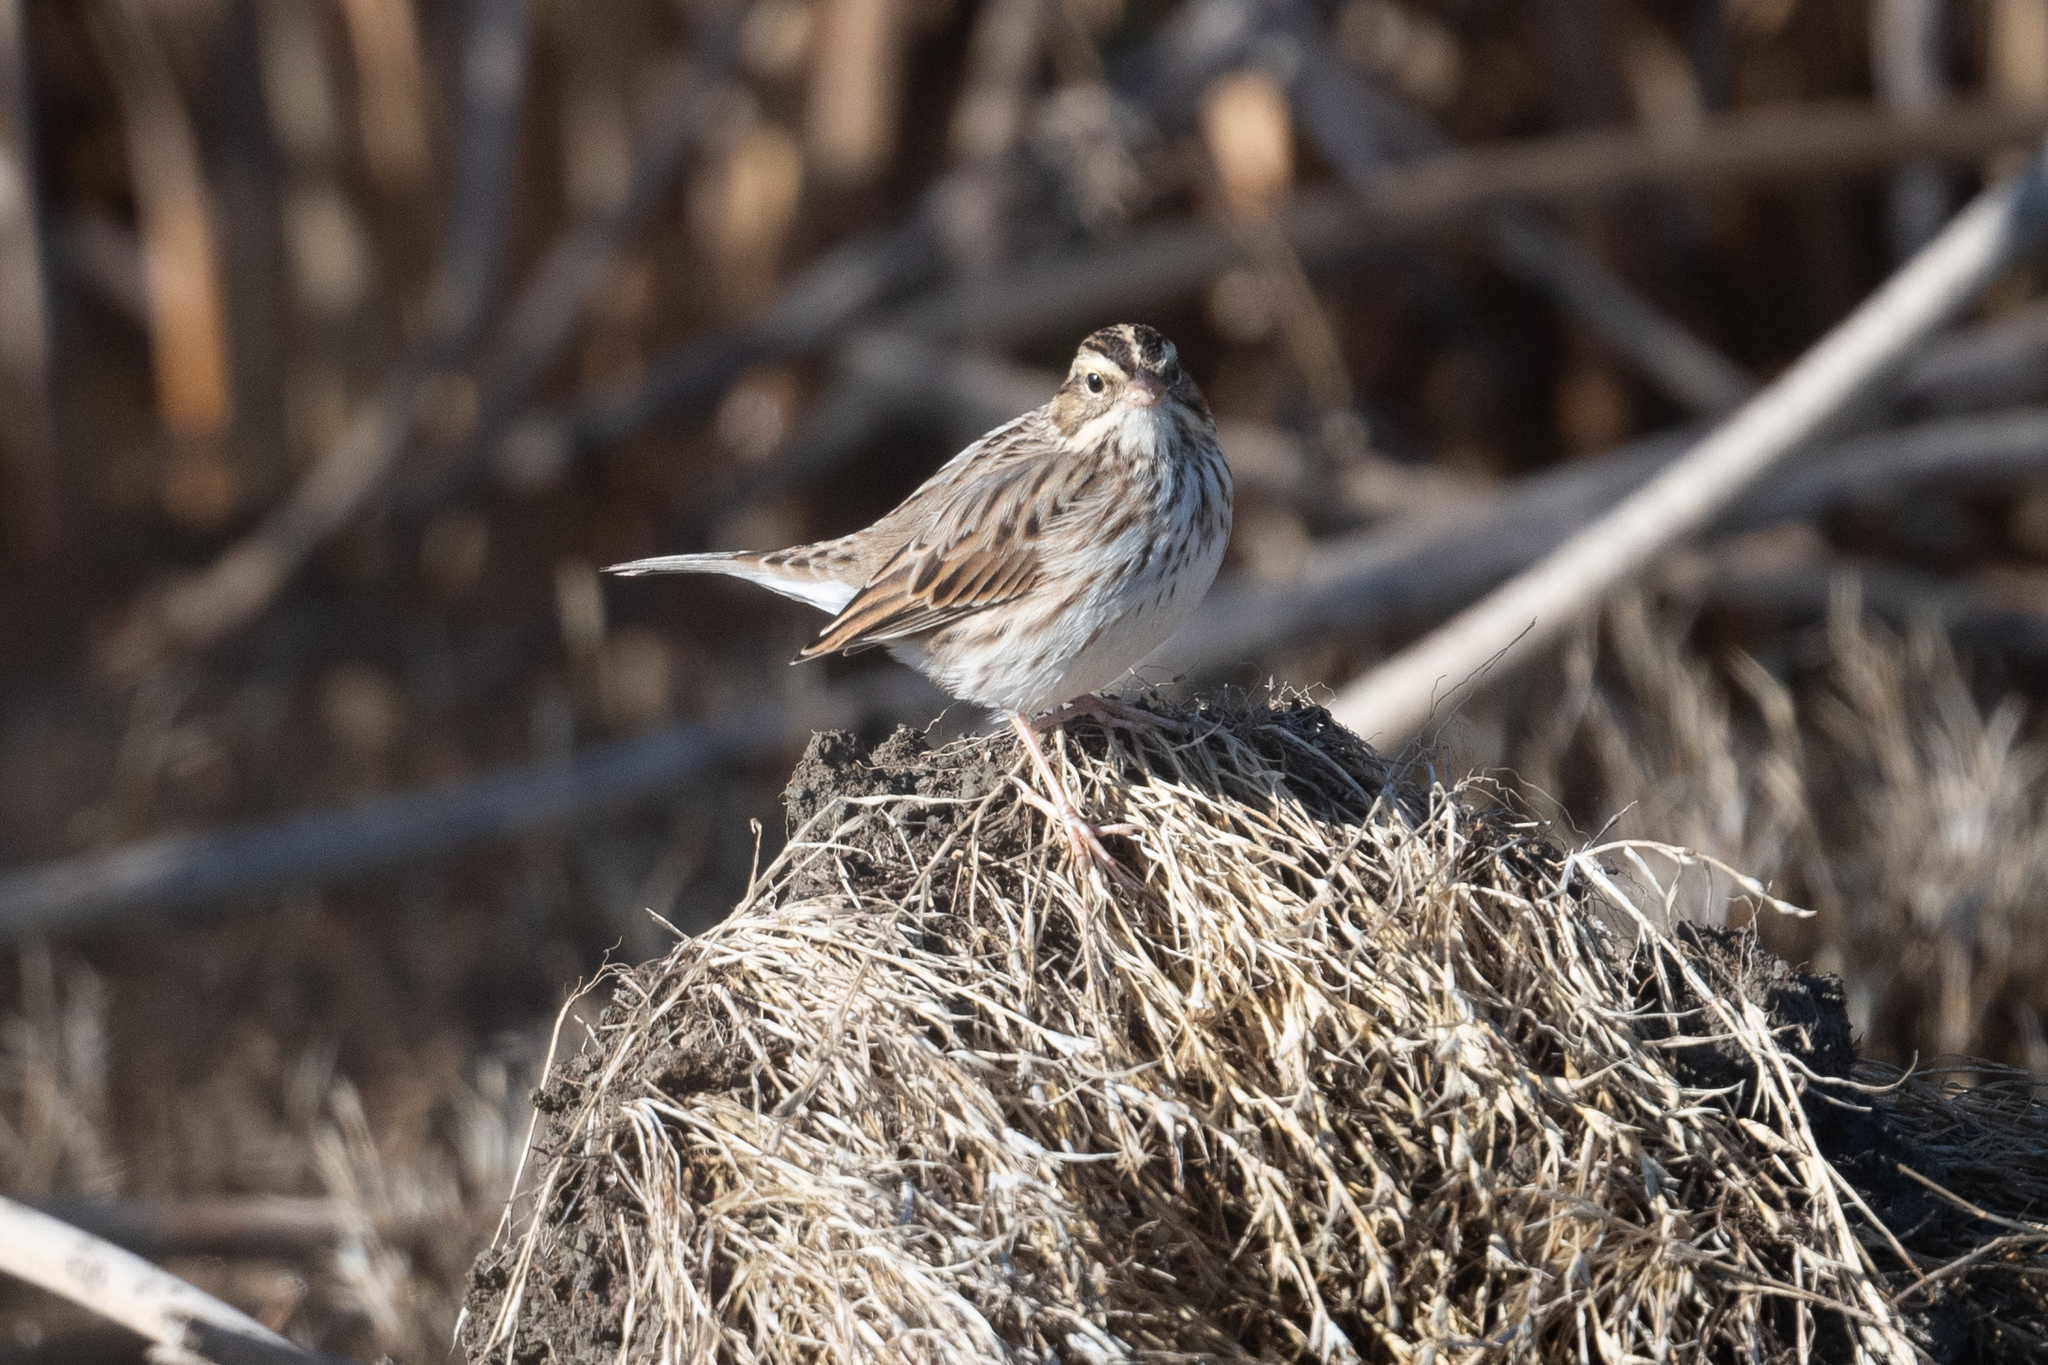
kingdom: Animalia
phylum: Chordata
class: Aves
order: Passeriformes
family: Passerellidae
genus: Passerculus
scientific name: Passerculus sandwichensis
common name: Savannah sparrow
